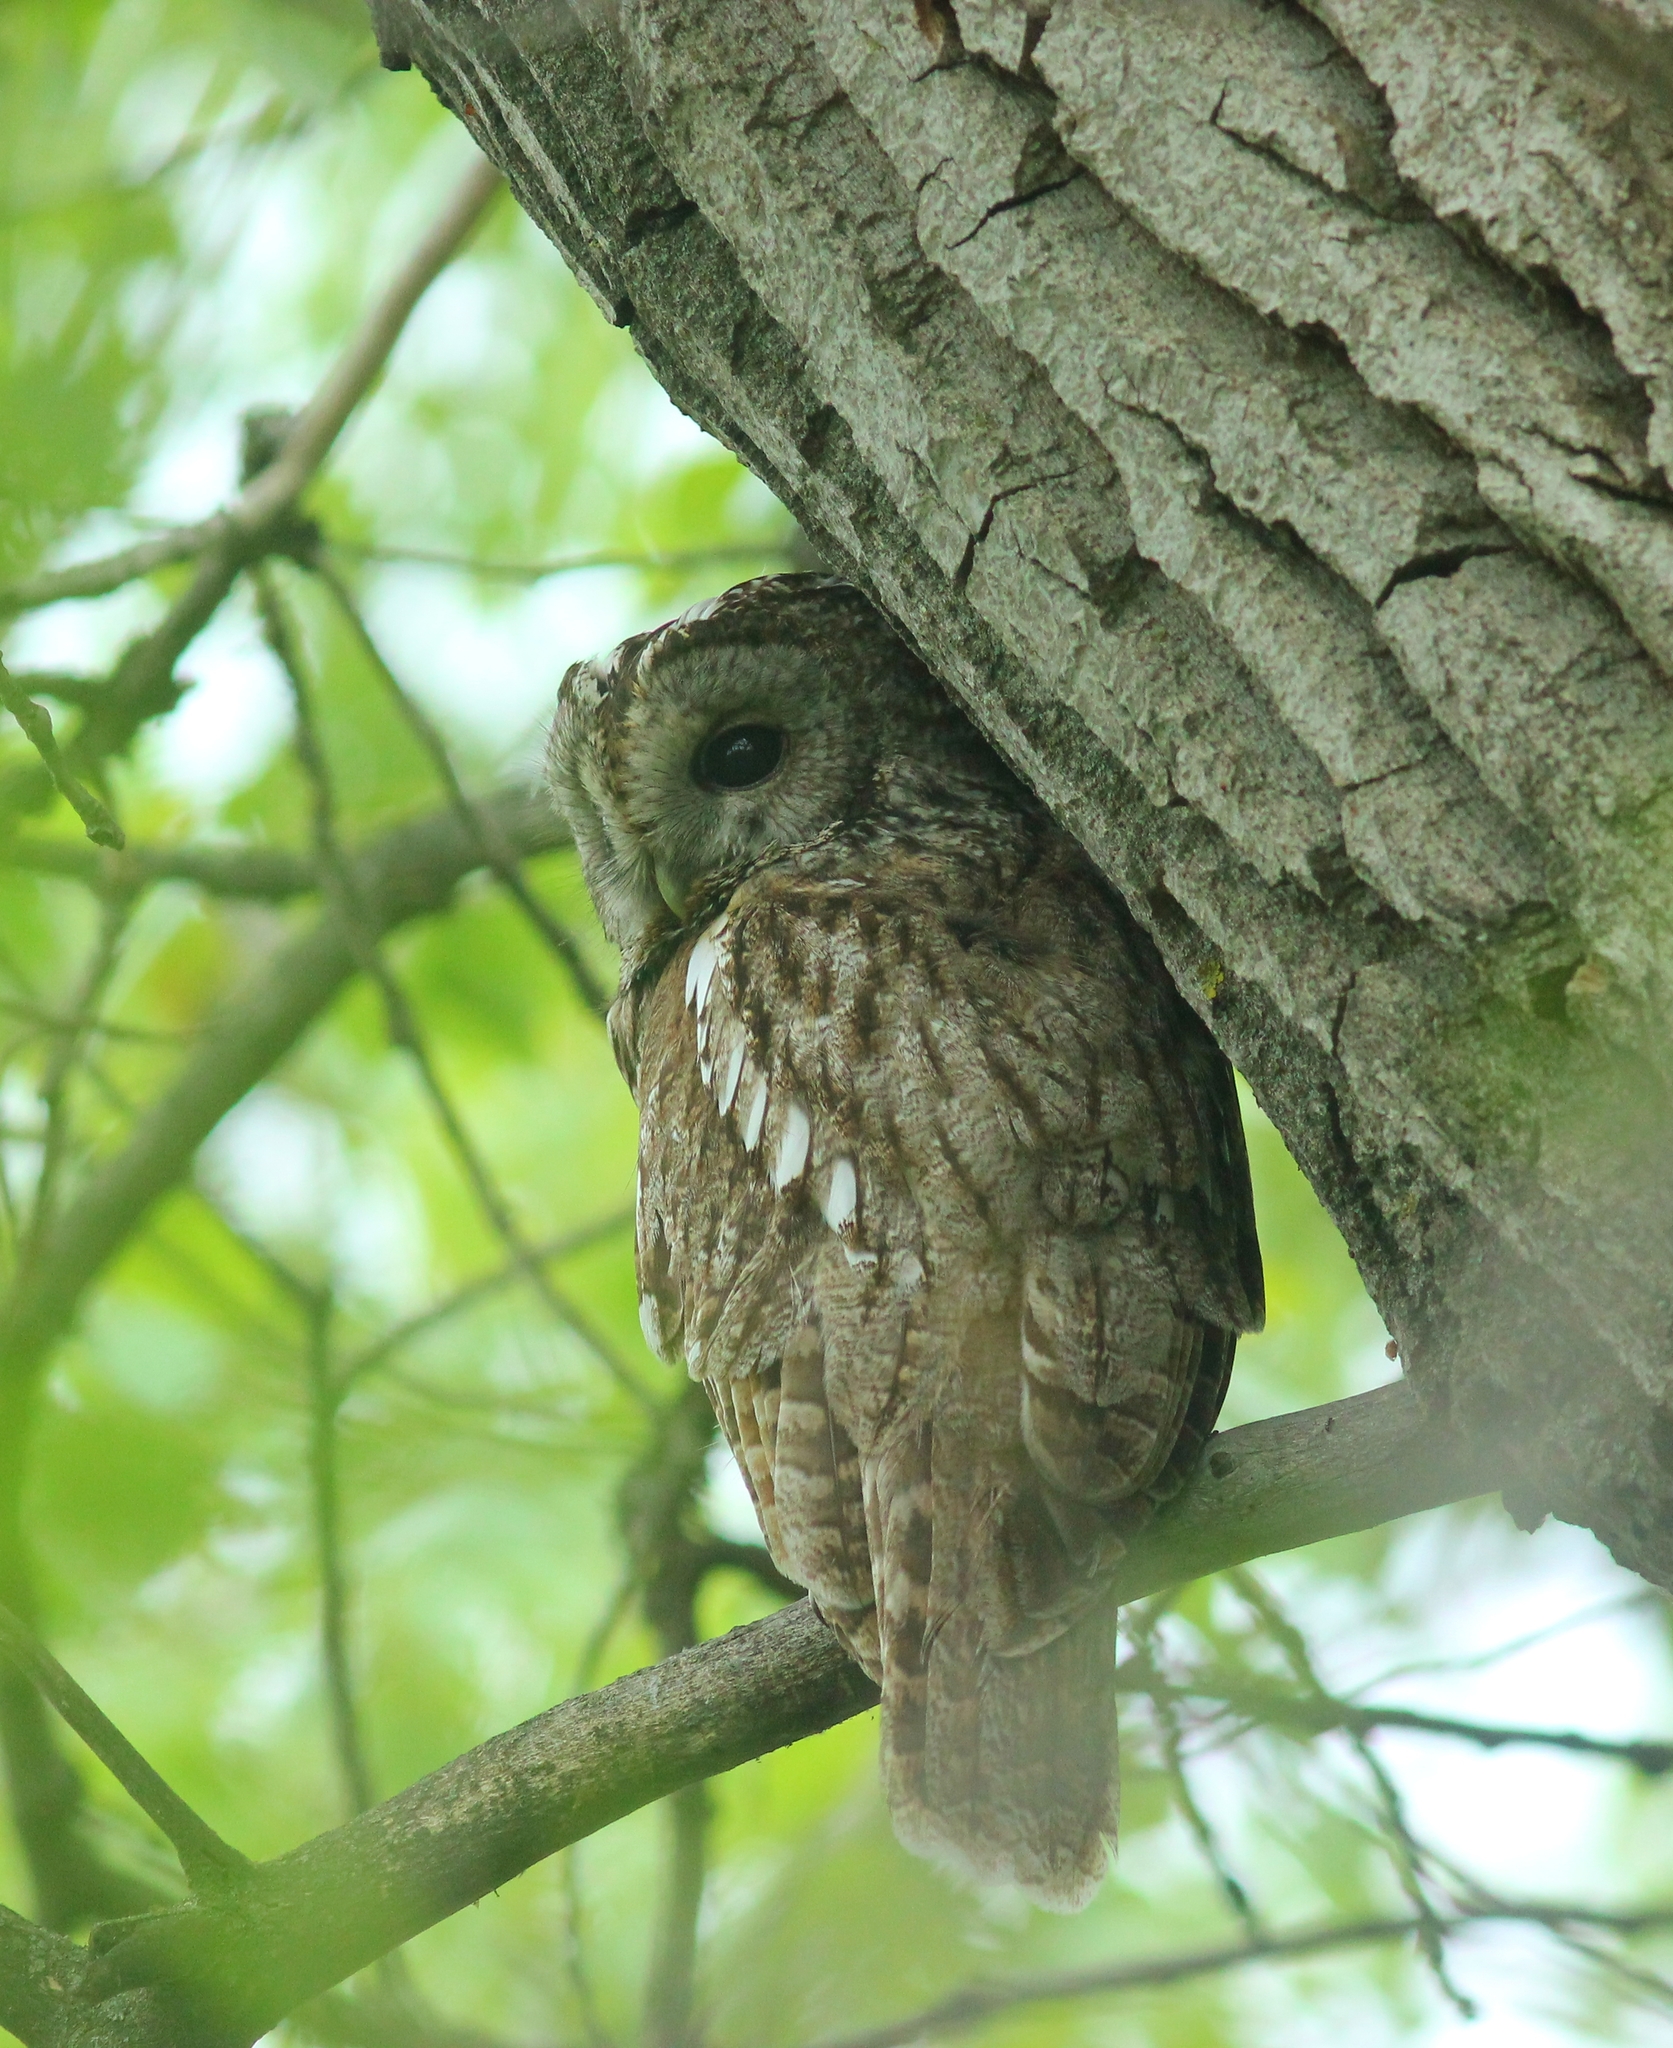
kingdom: Animalia
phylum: Chordata
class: Aves
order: Strigiformes
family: Strigidae
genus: Strix
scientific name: Strix aluco
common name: Tawny owl
